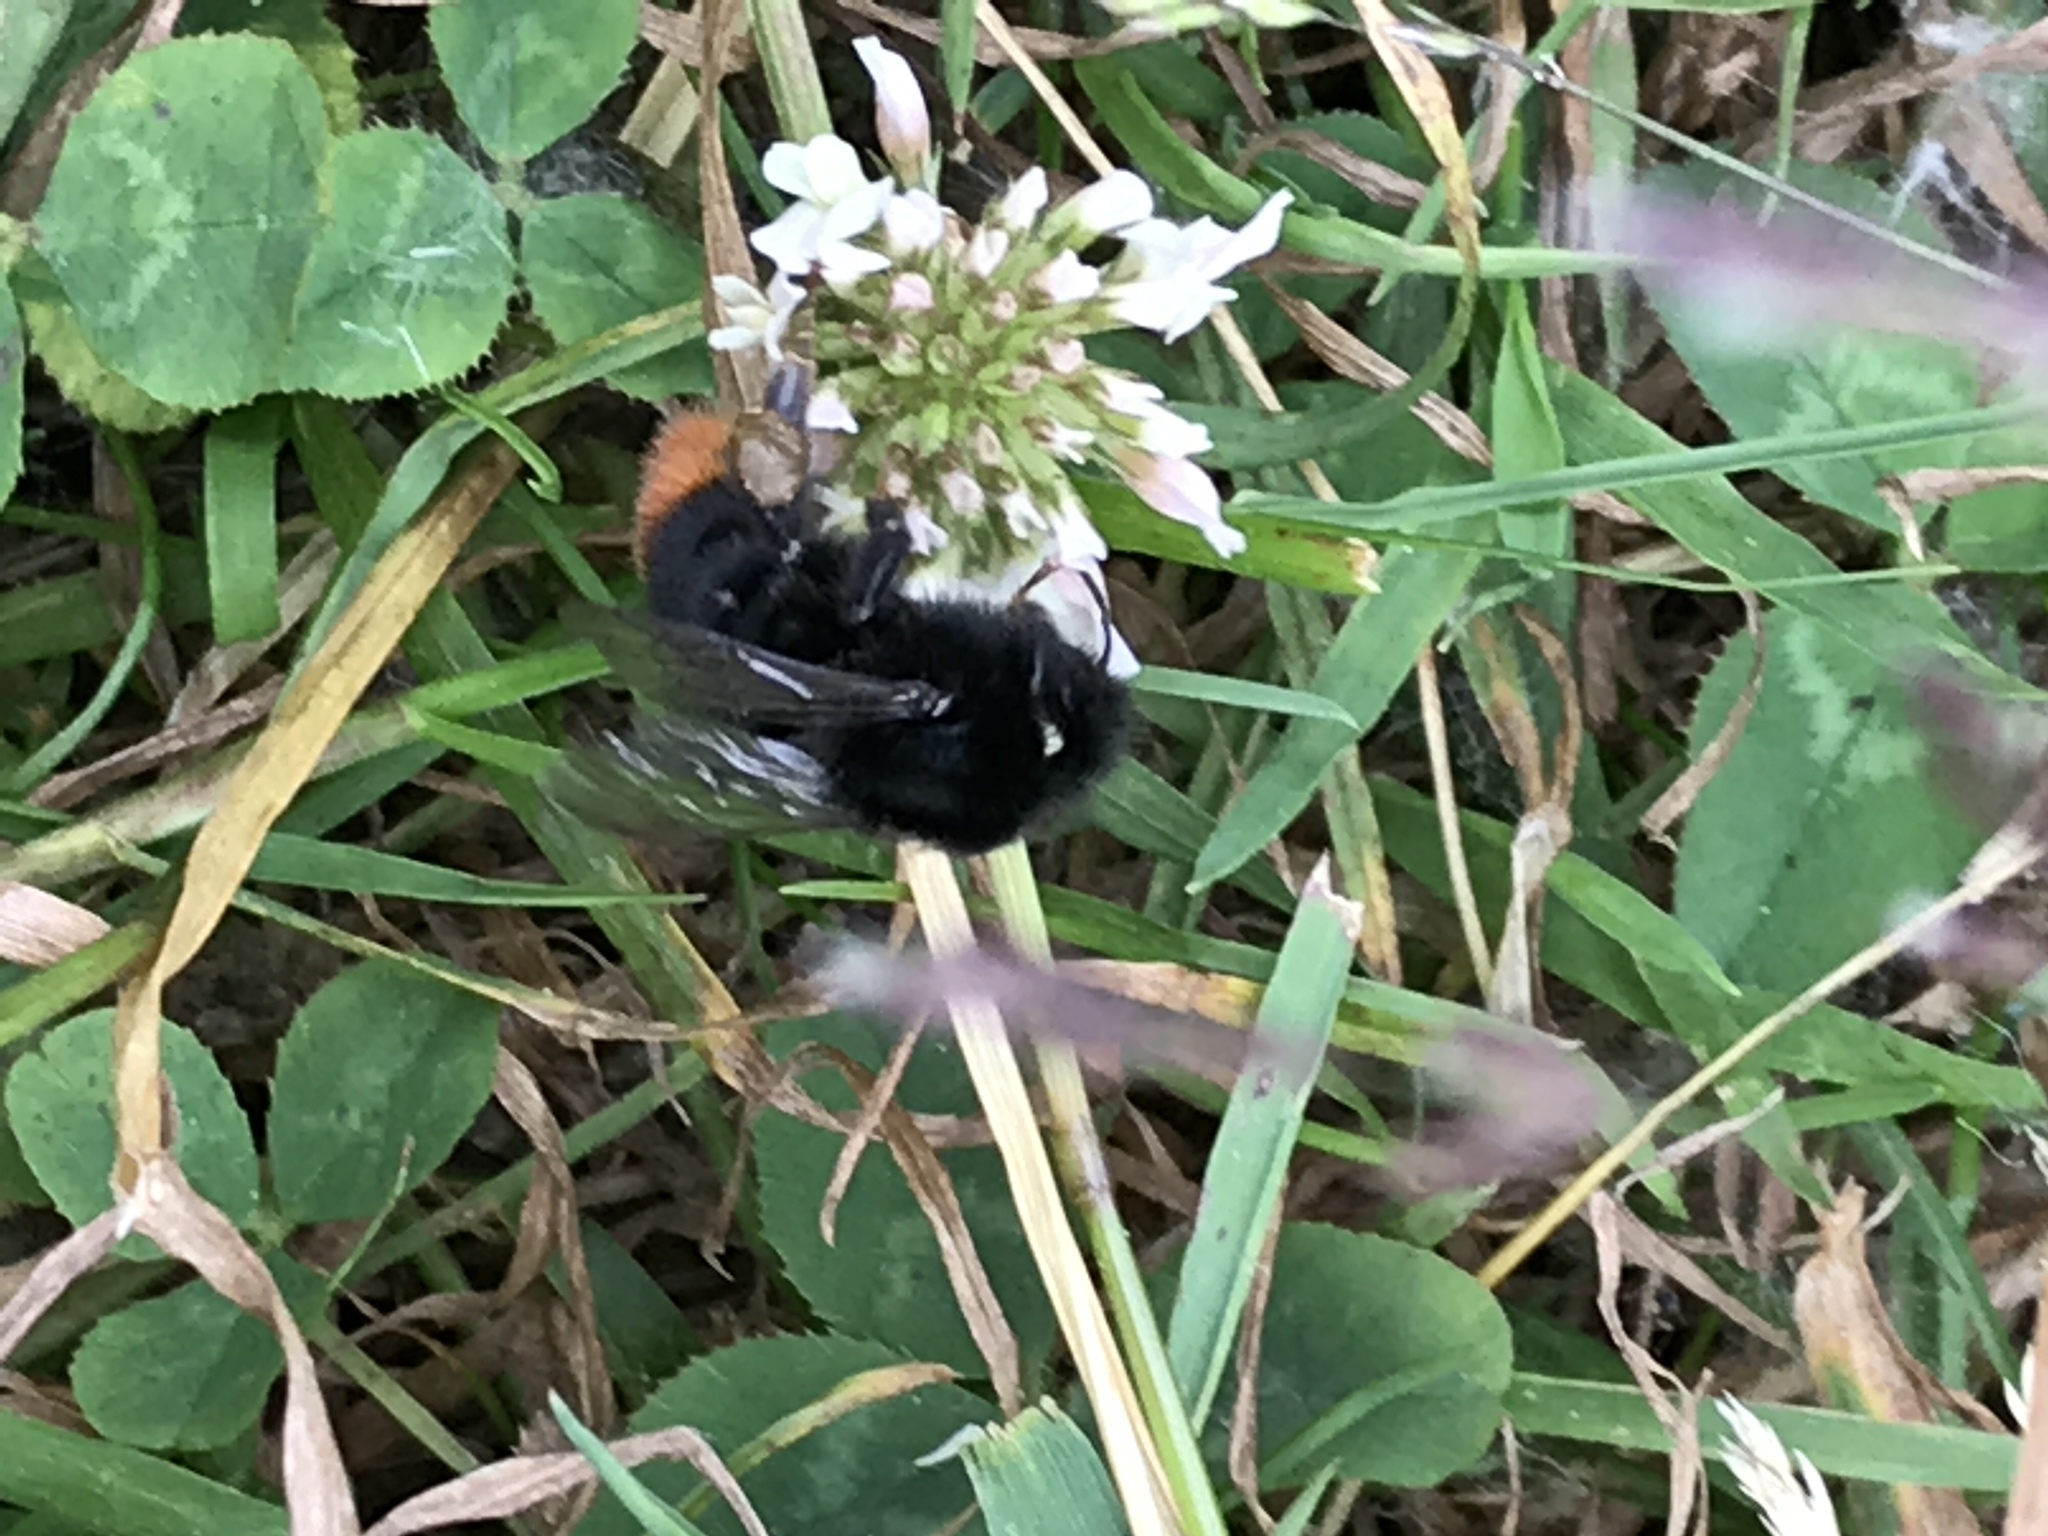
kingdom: Animalia
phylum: Arthropoda
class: Insecta
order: Hymenoptera
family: Apidae
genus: Bombus
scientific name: Bombus lapidarius
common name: Large red-tailed humble-bee
